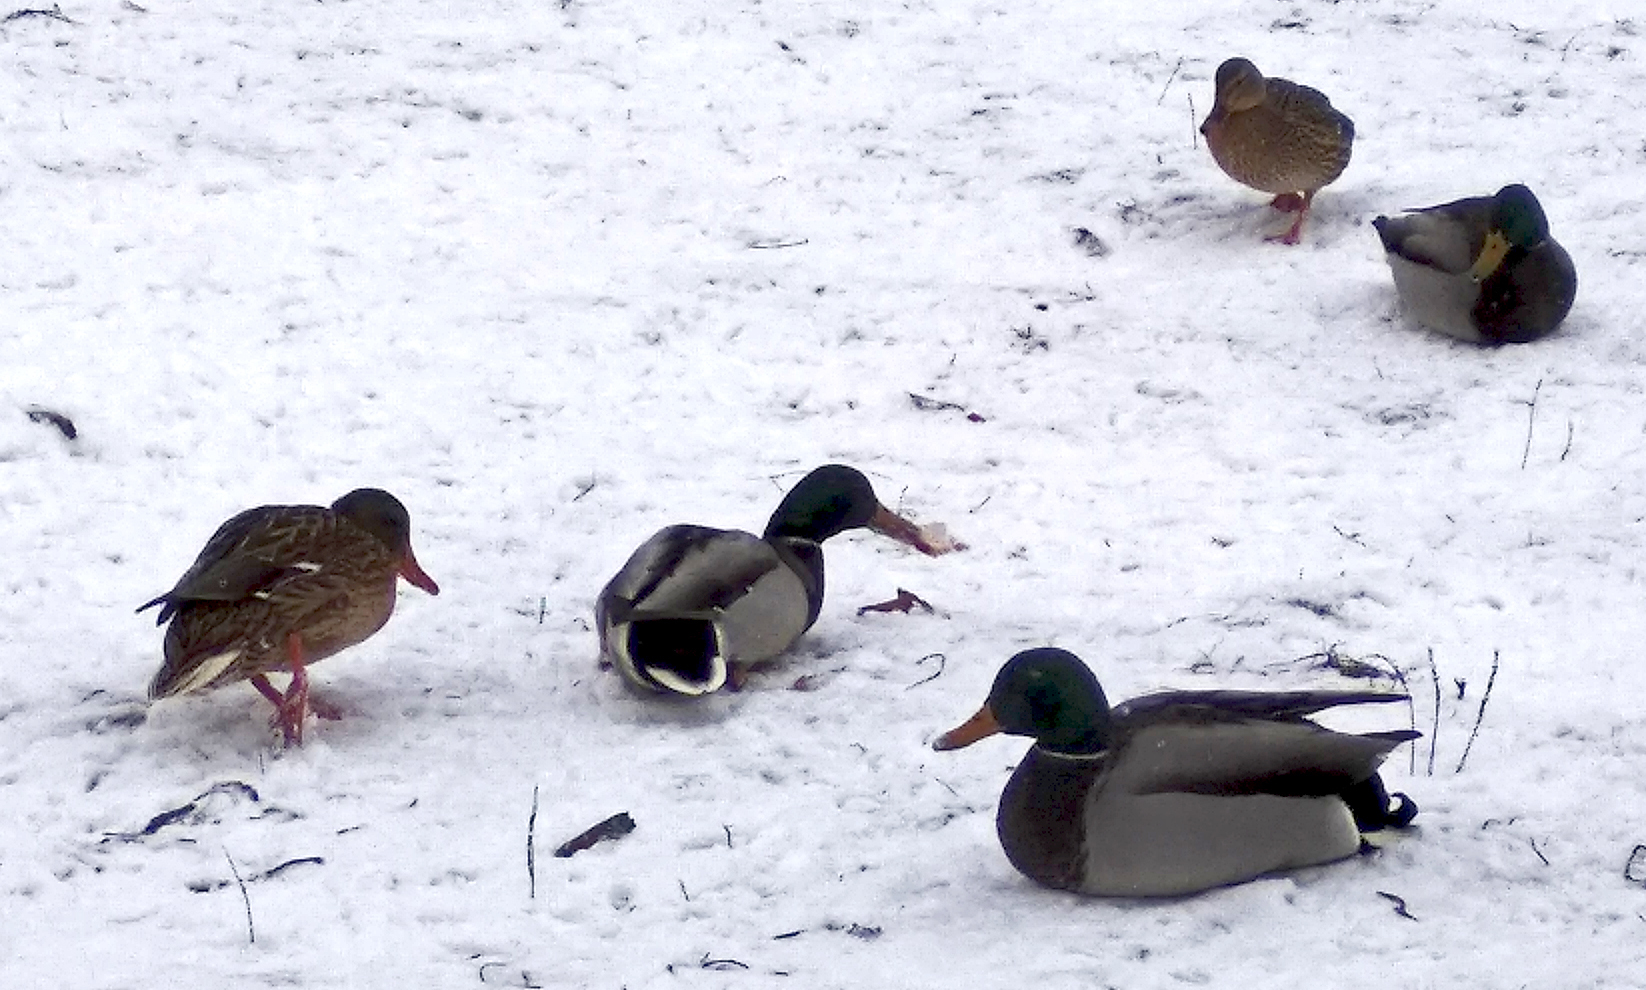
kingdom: Animalia
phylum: Chordata
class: Aves
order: Anseriformes
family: Anatidae
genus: Anas
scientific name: Anas platyrhynchos
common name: Mallard
